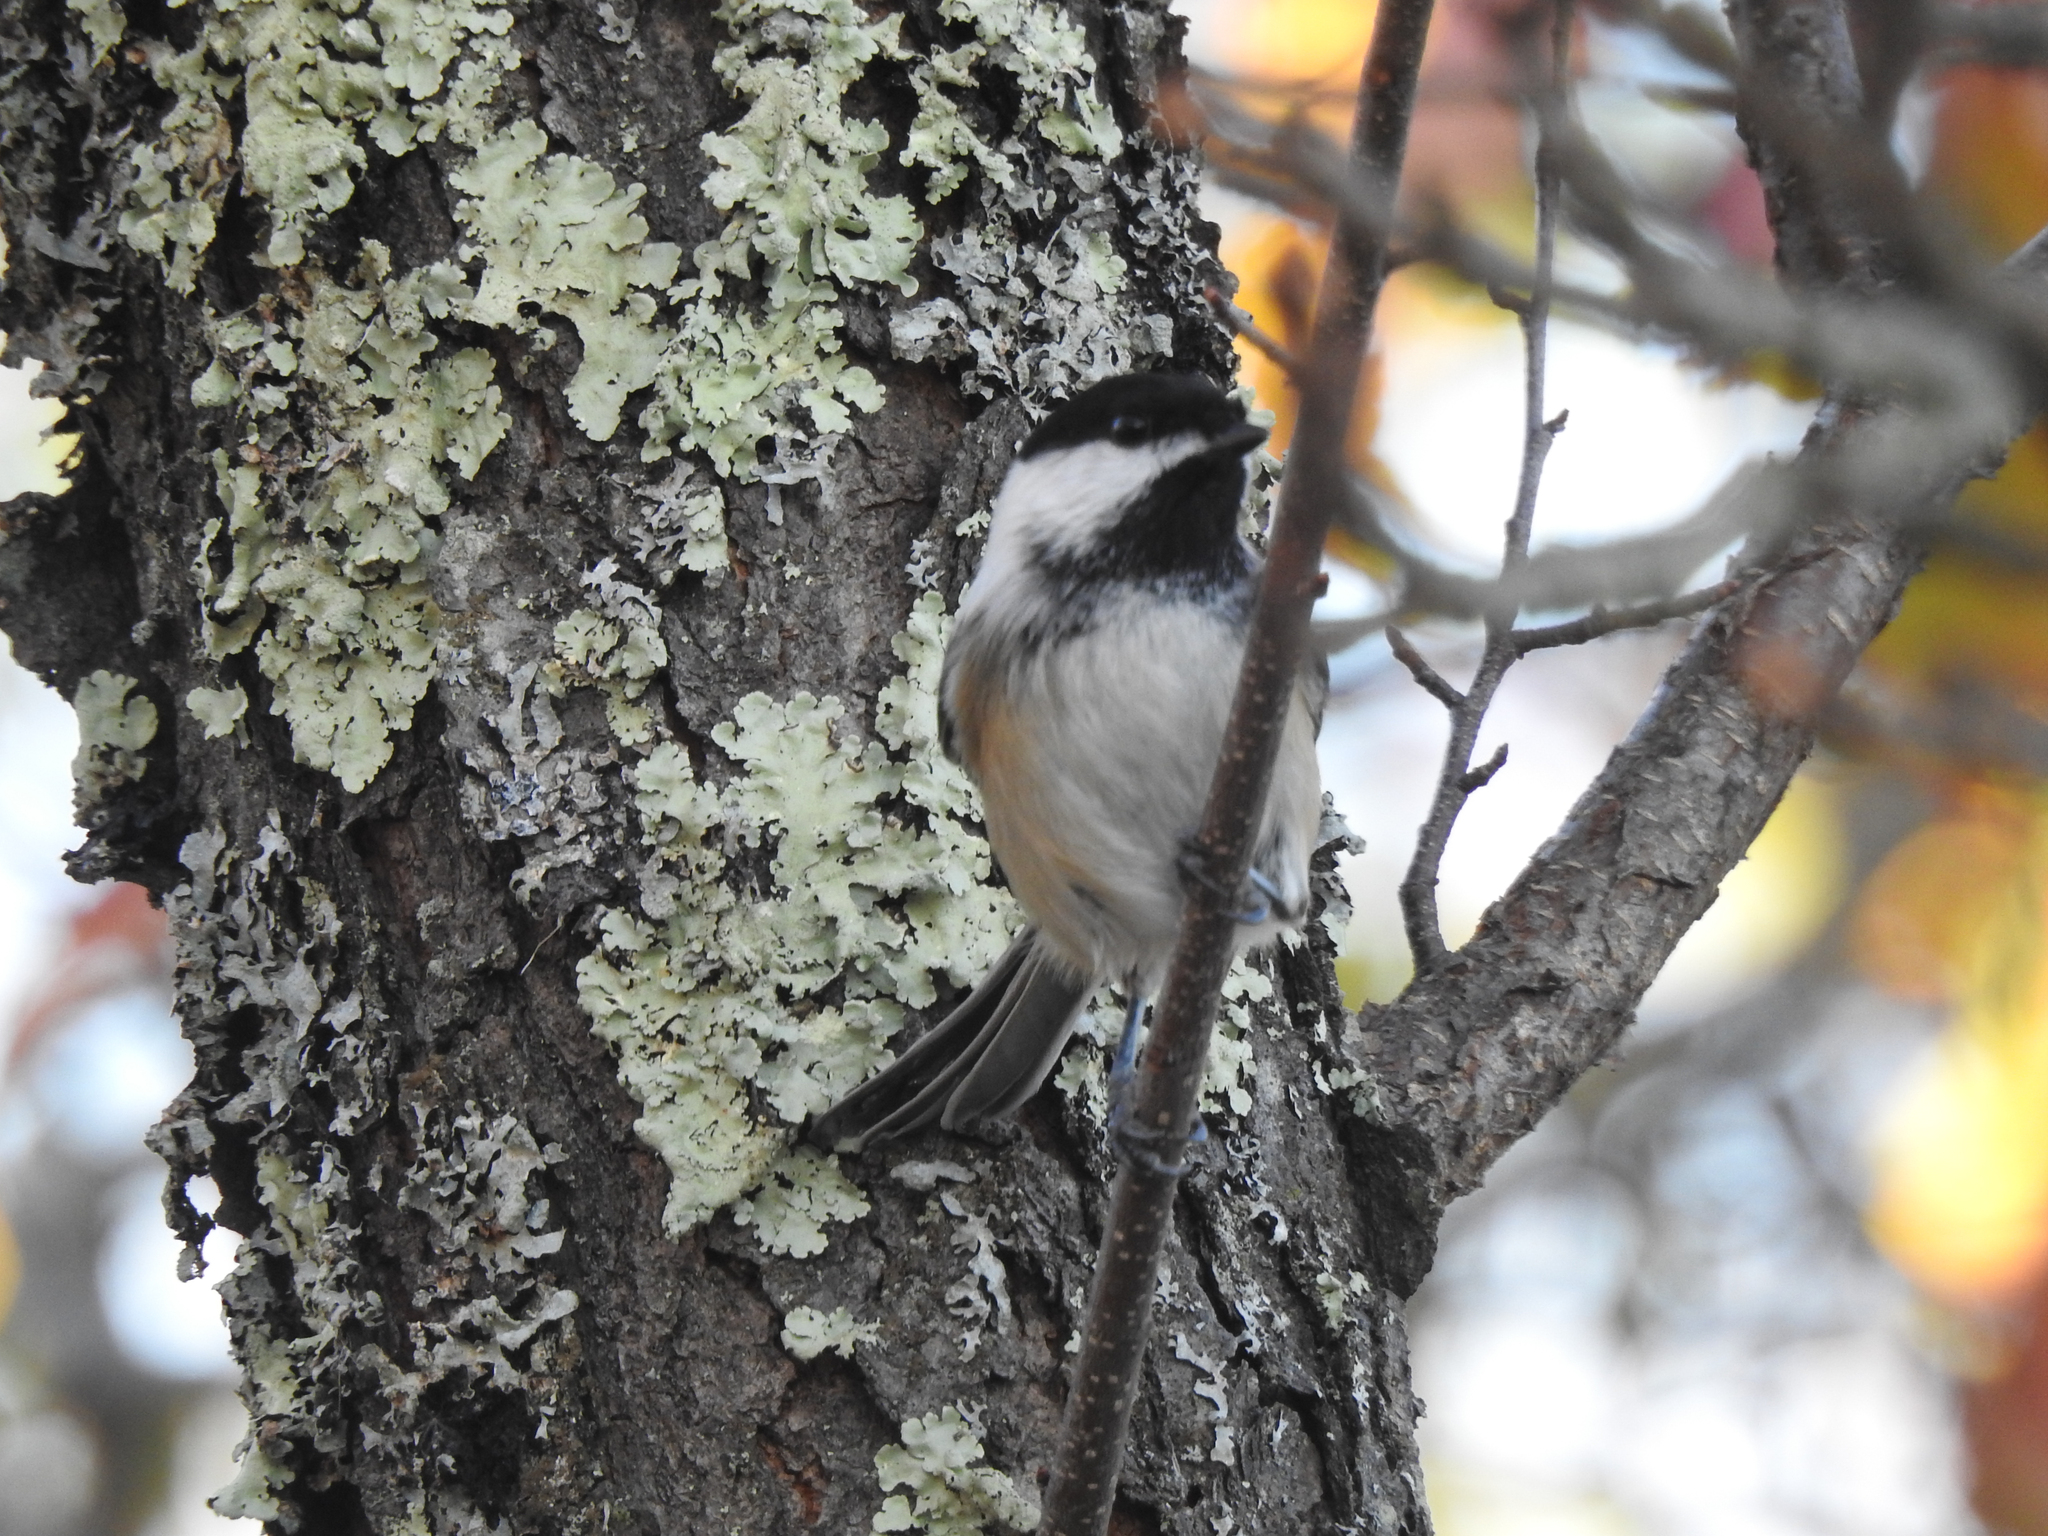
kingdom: Animalia
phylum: Chordata
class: Aves
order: Passeriformes
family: Paridae
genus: Poecile
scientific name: Poecile atricapillus
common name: Black-capped chickadee
